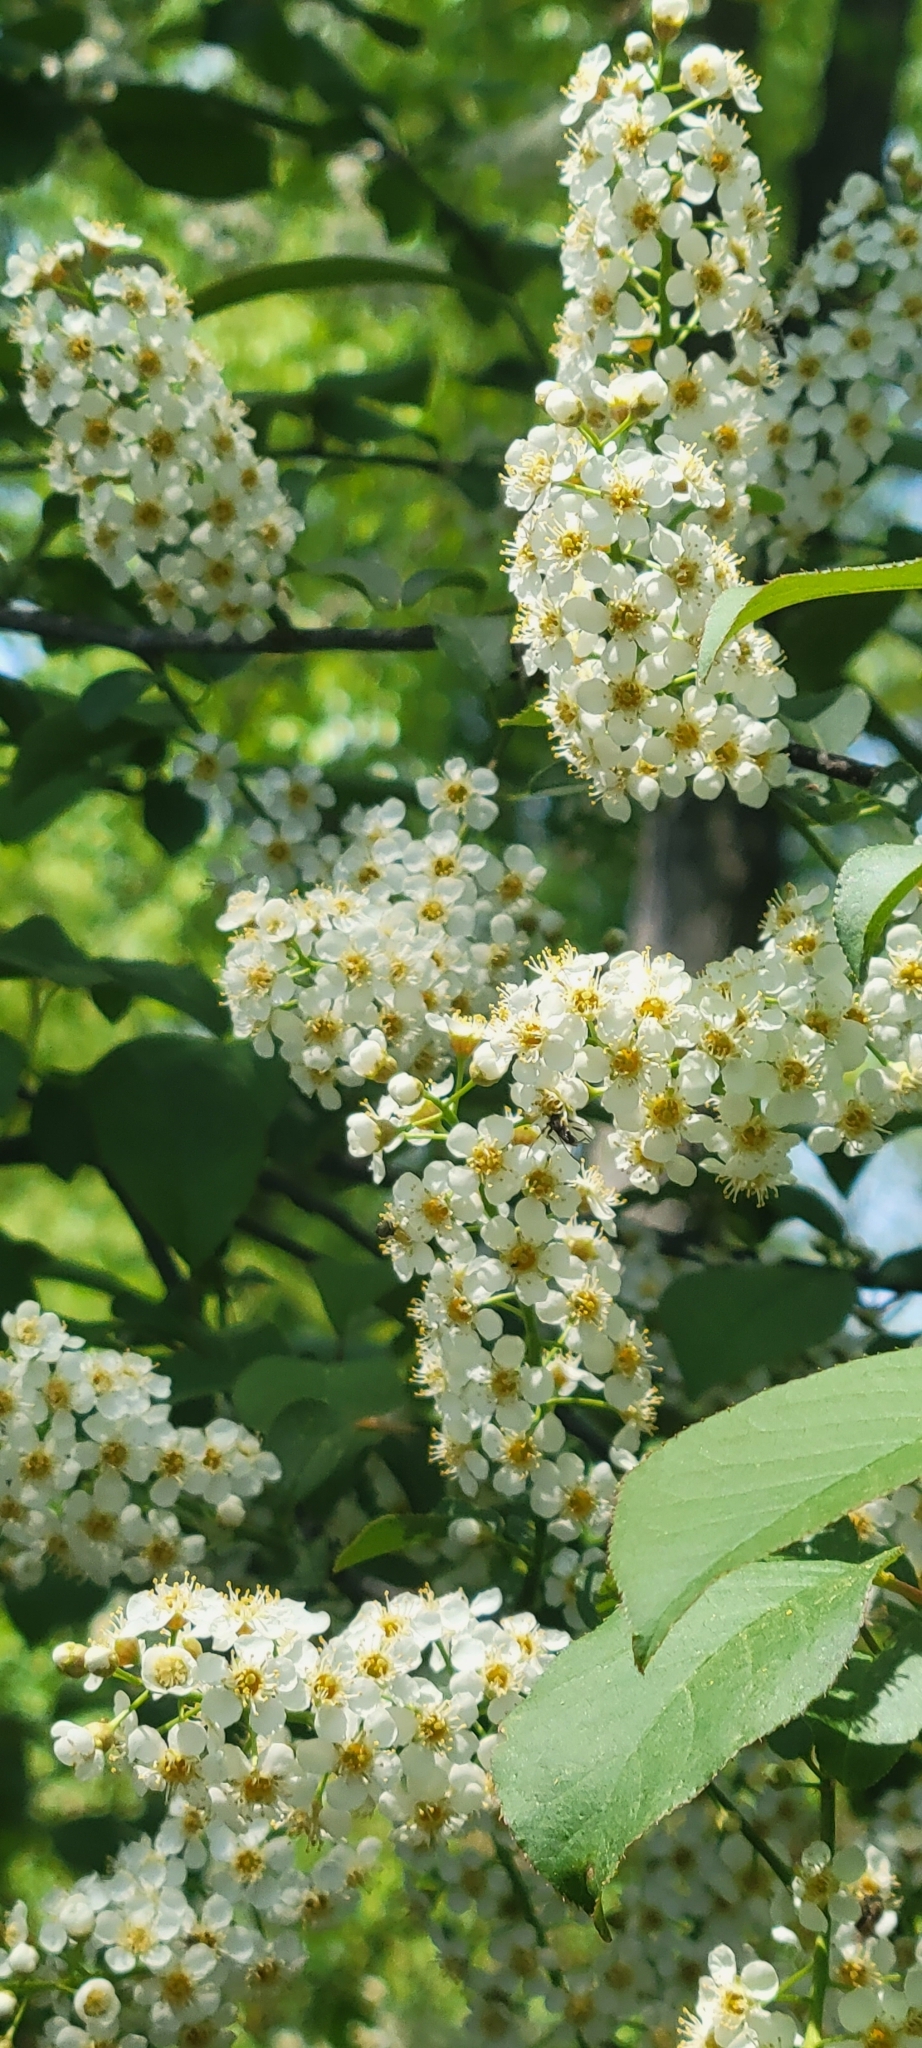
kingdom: Plantae
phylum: Tracheophyta
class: Magnoliopsida
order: Rosales
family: Rosaceae
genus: Prunus
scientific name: Prunus virginiana
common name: Chokecherry
